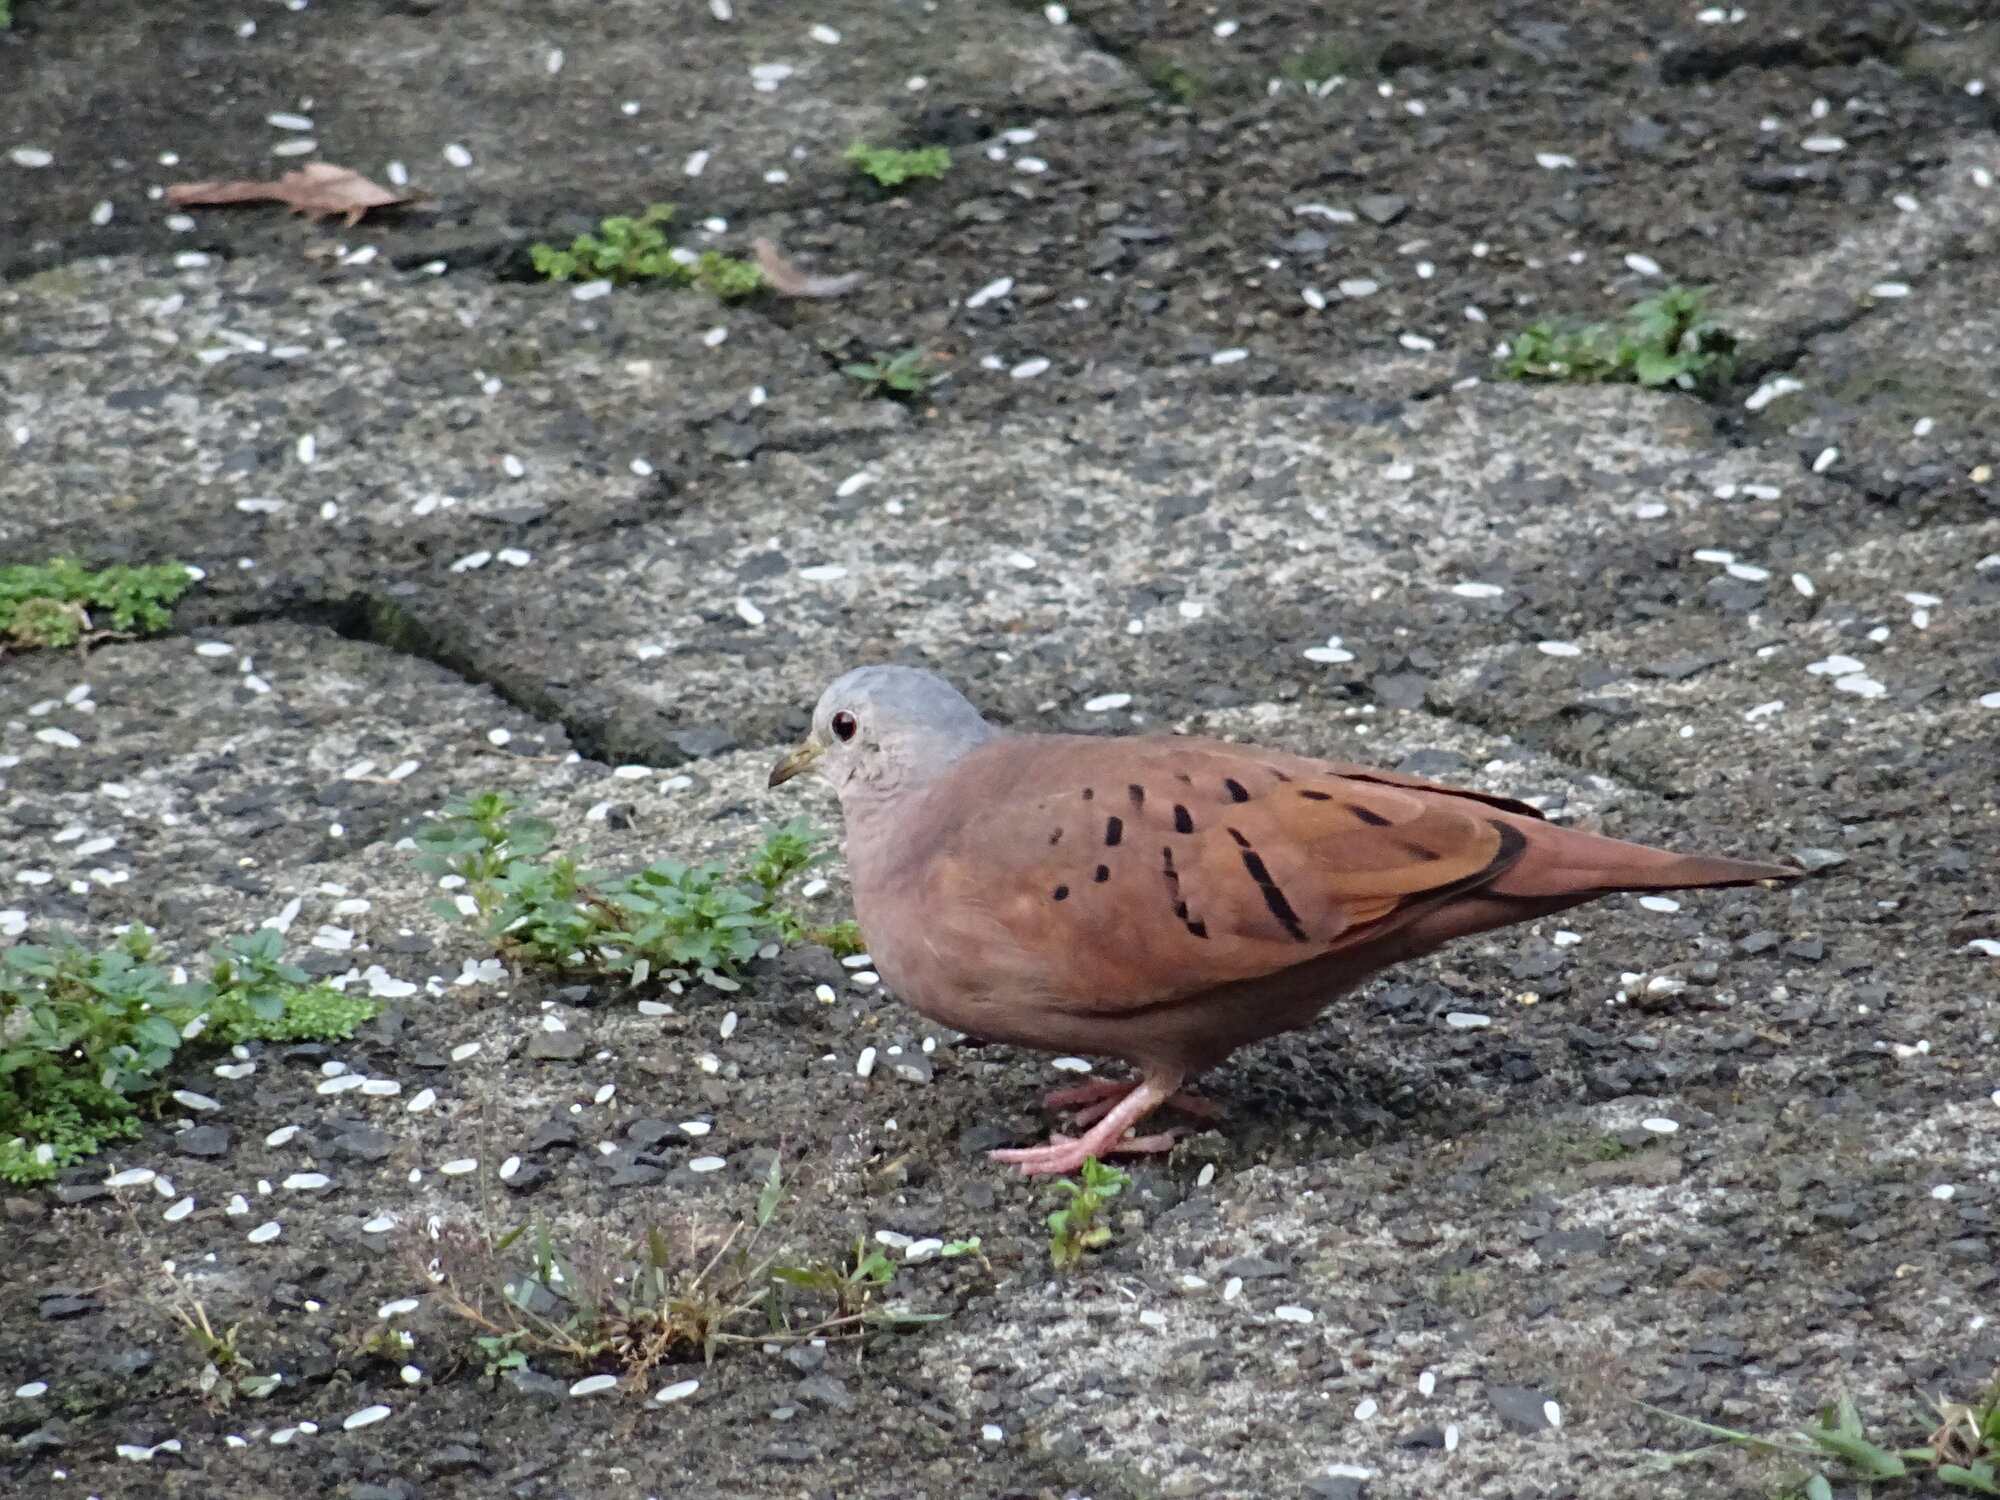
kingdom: Animalia
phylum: Chordata
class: Aves
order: Columbiformes
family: Columbidae
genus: Columbina
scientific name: Columbina talpacoti
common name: Ruddy ground dove
